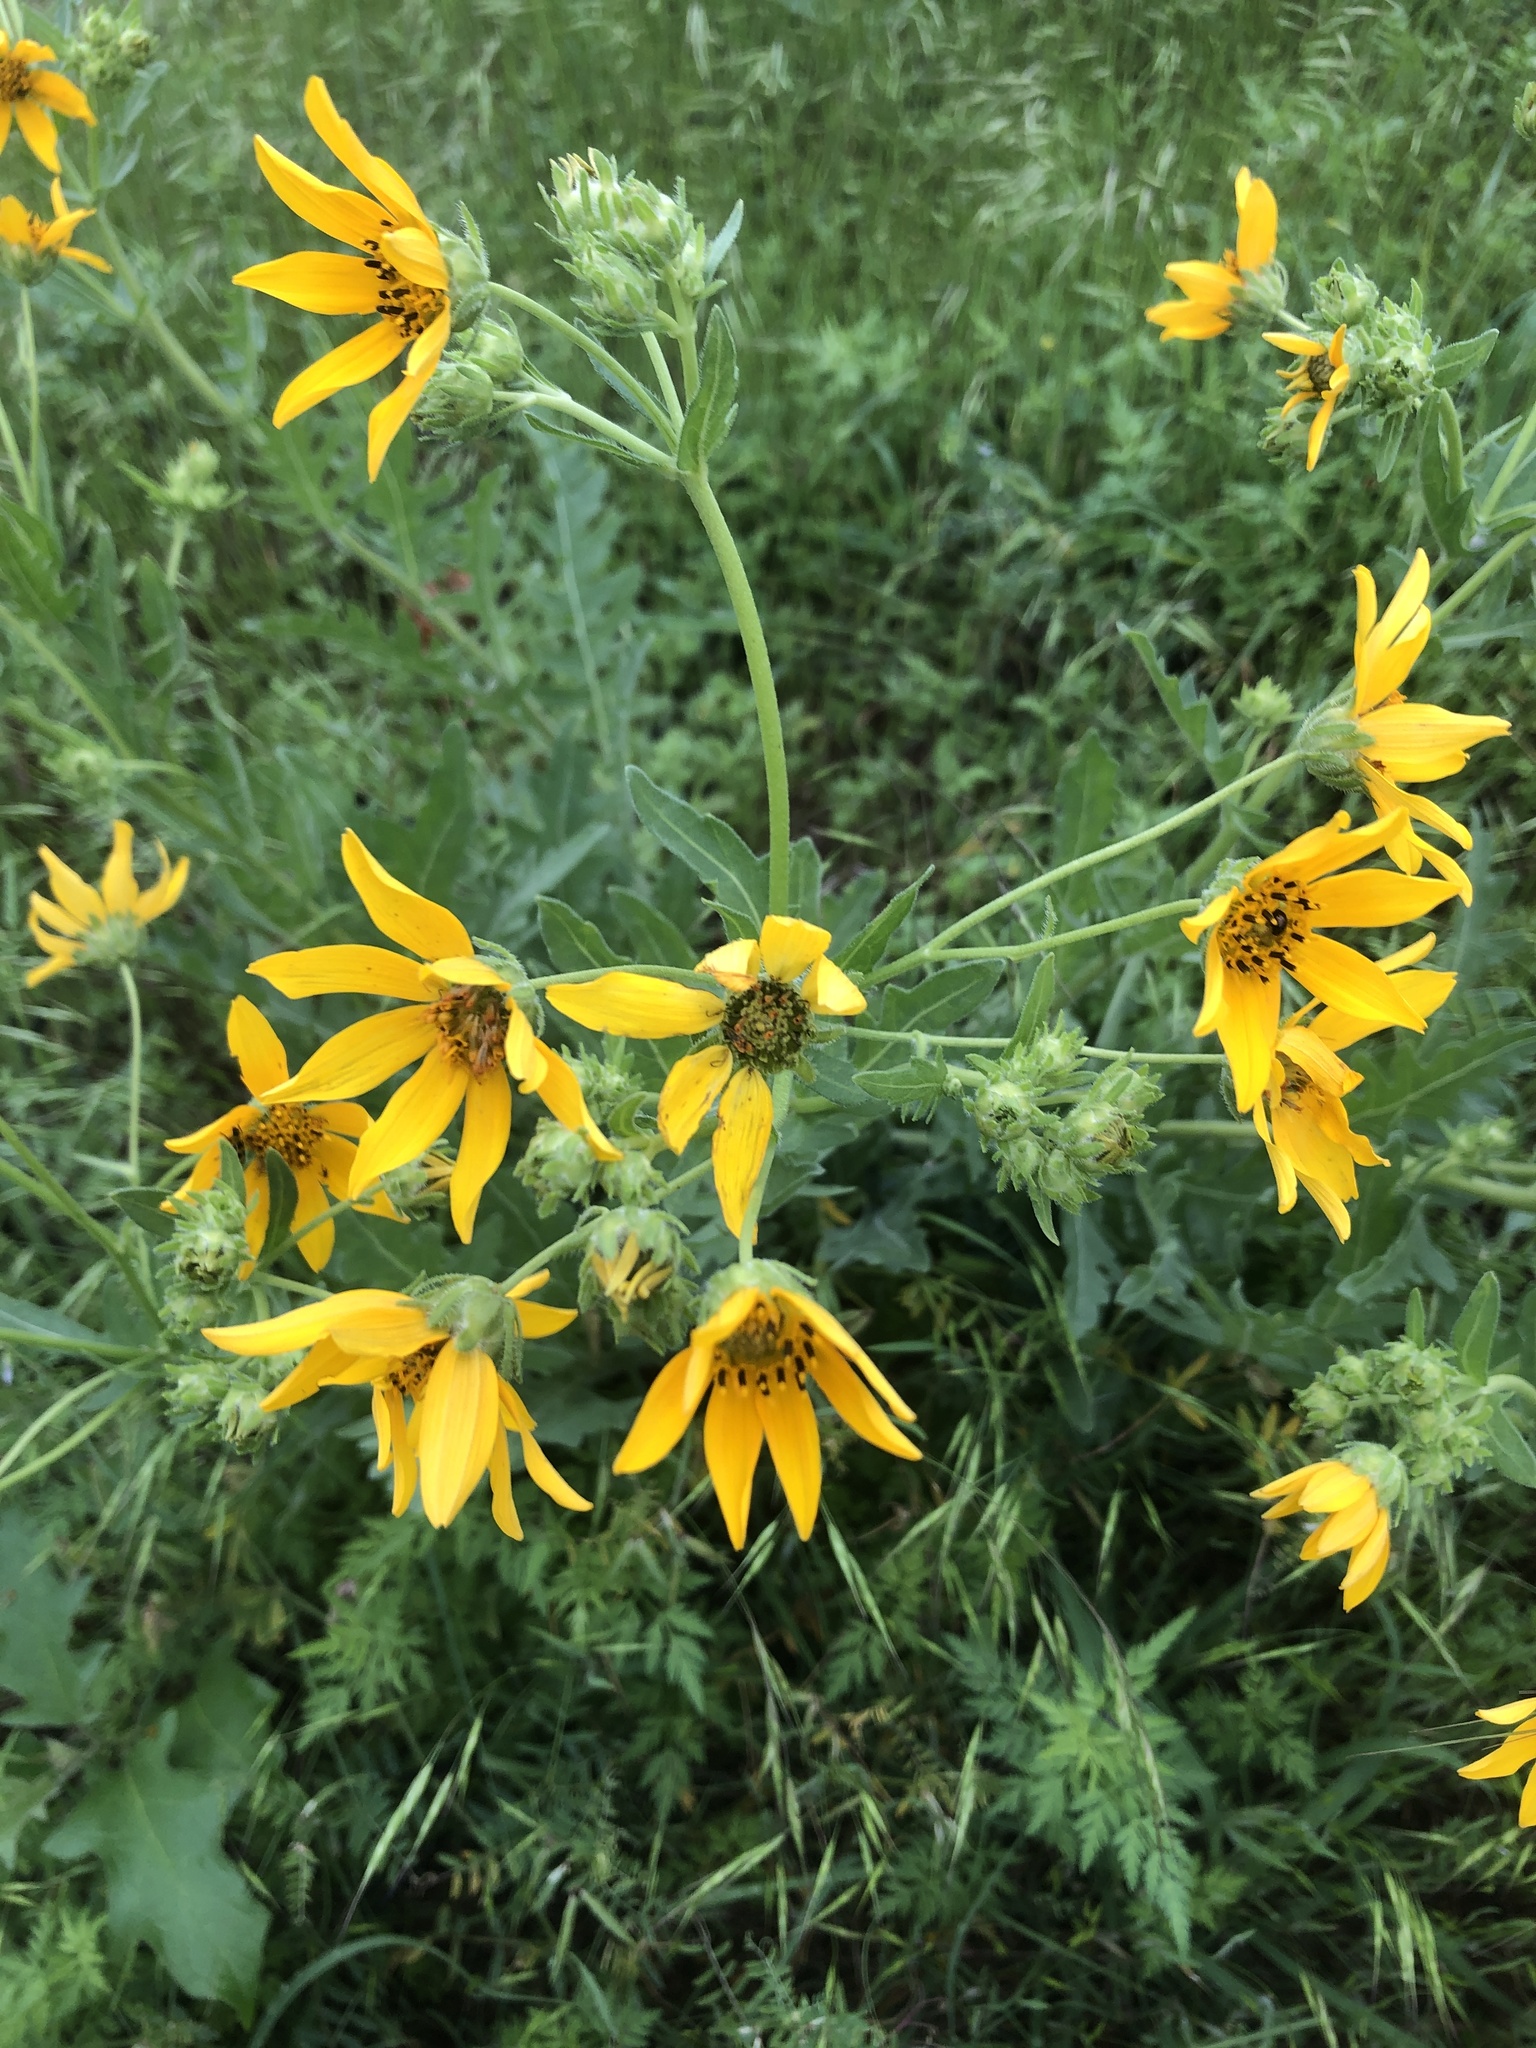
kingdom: Plantae
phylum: Tracheophyta
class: Magnoliopsida
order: Asterales
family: Asteraceae
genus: Engelmannia
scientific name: Engelmannia peristenia
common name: Engelmann's daisy
